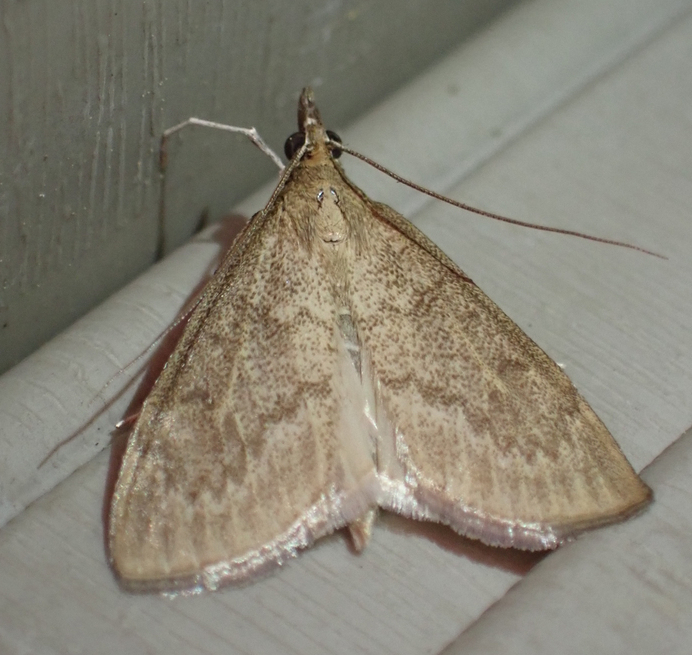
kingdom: Animalia
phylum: Arthropoda
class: Insecta
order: Lepidoptera
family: Crambidae
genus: Saucrobotys
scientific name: Saucrobotys futilalis
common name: Dogbane saucrobotys moth
